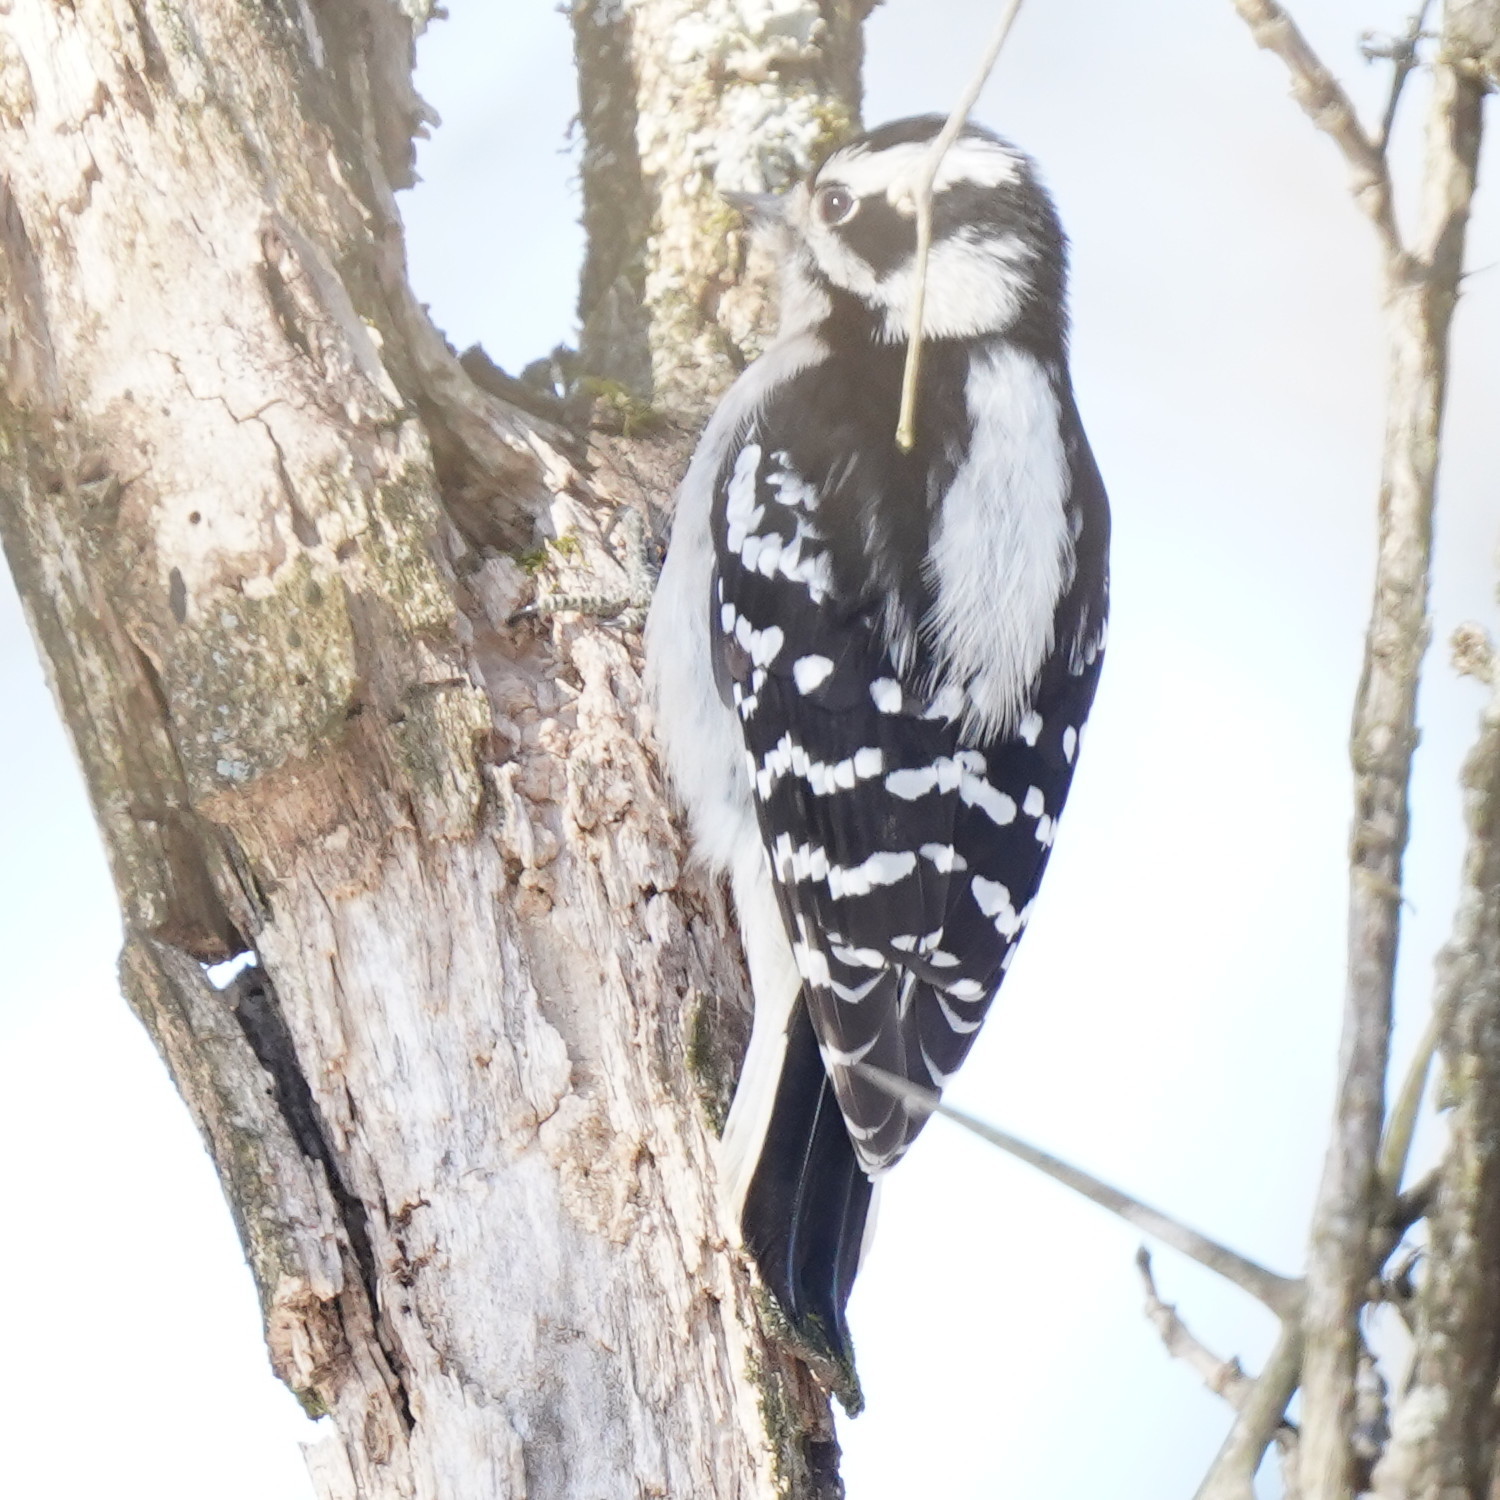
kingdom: Animalia
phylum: Chordata
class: Aves
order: Piciformes
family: Picidae
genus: Dryobates
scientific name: Dryobates pubescens
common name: Downy woodpecker
